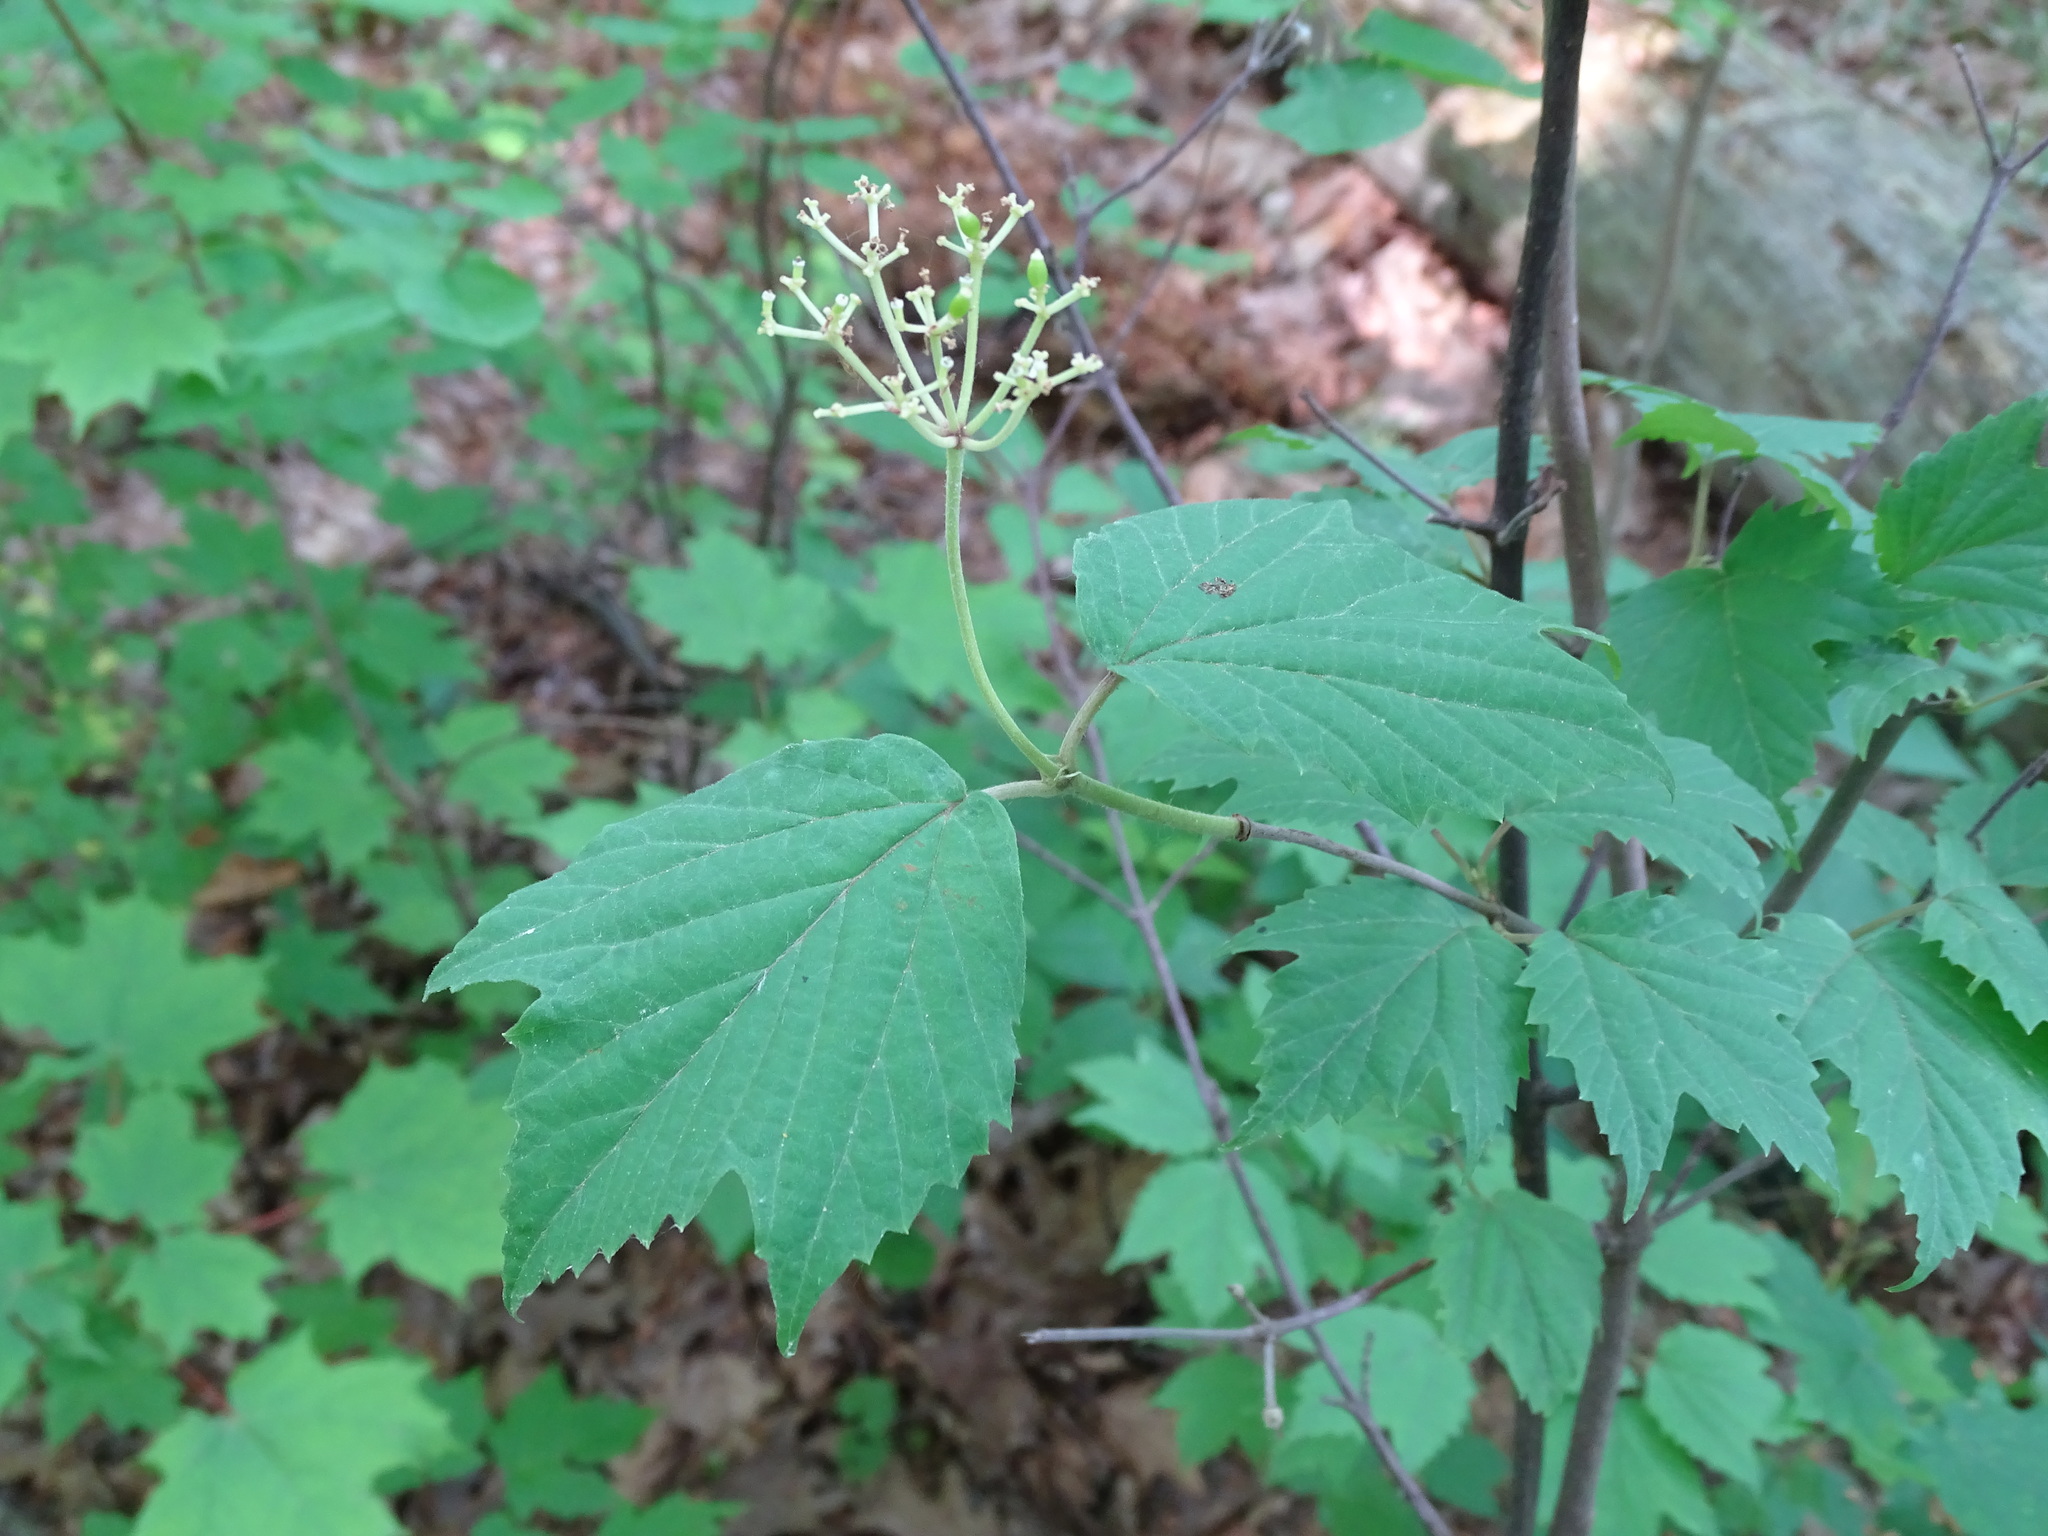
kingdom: Plantae
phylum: Tracheophyta
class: Magnoliopsida
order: Dipsacales
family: Viburnaceae
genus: Viburnum
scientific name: Viburnum acerifolium
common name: Dockmackie
